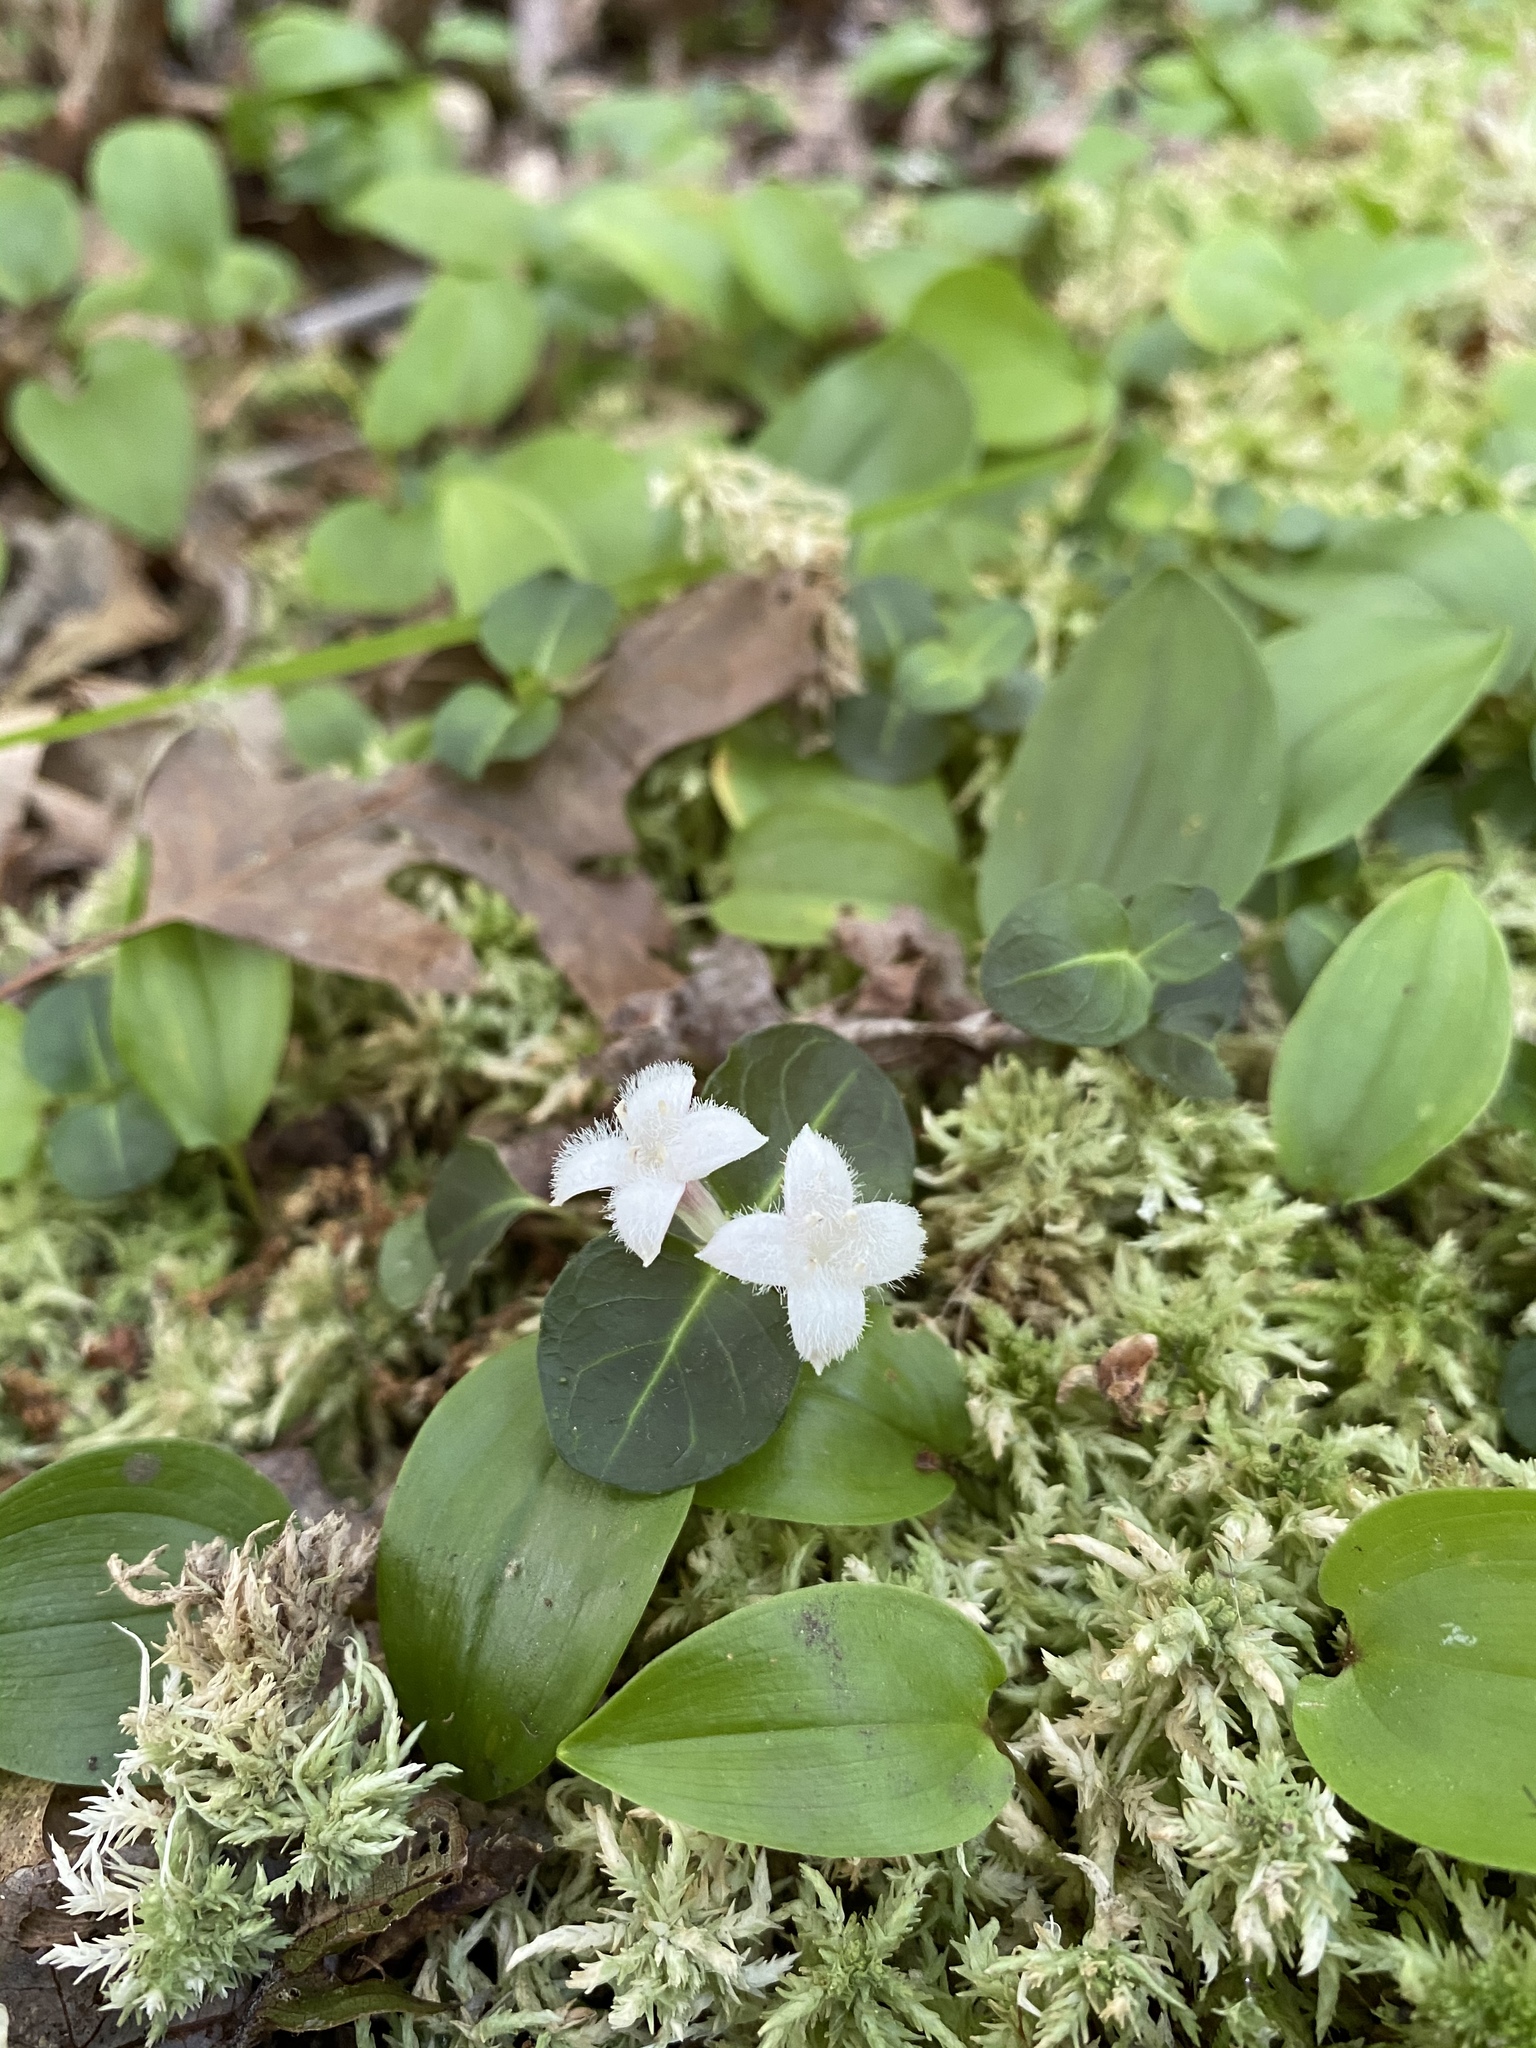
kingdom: Plantae
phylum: Tracheophyta
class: Magnoliopsida
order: Gentianales
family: Rubiaceae
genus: Mitchella
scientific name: Mitchella repens
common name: Partridge-berry
